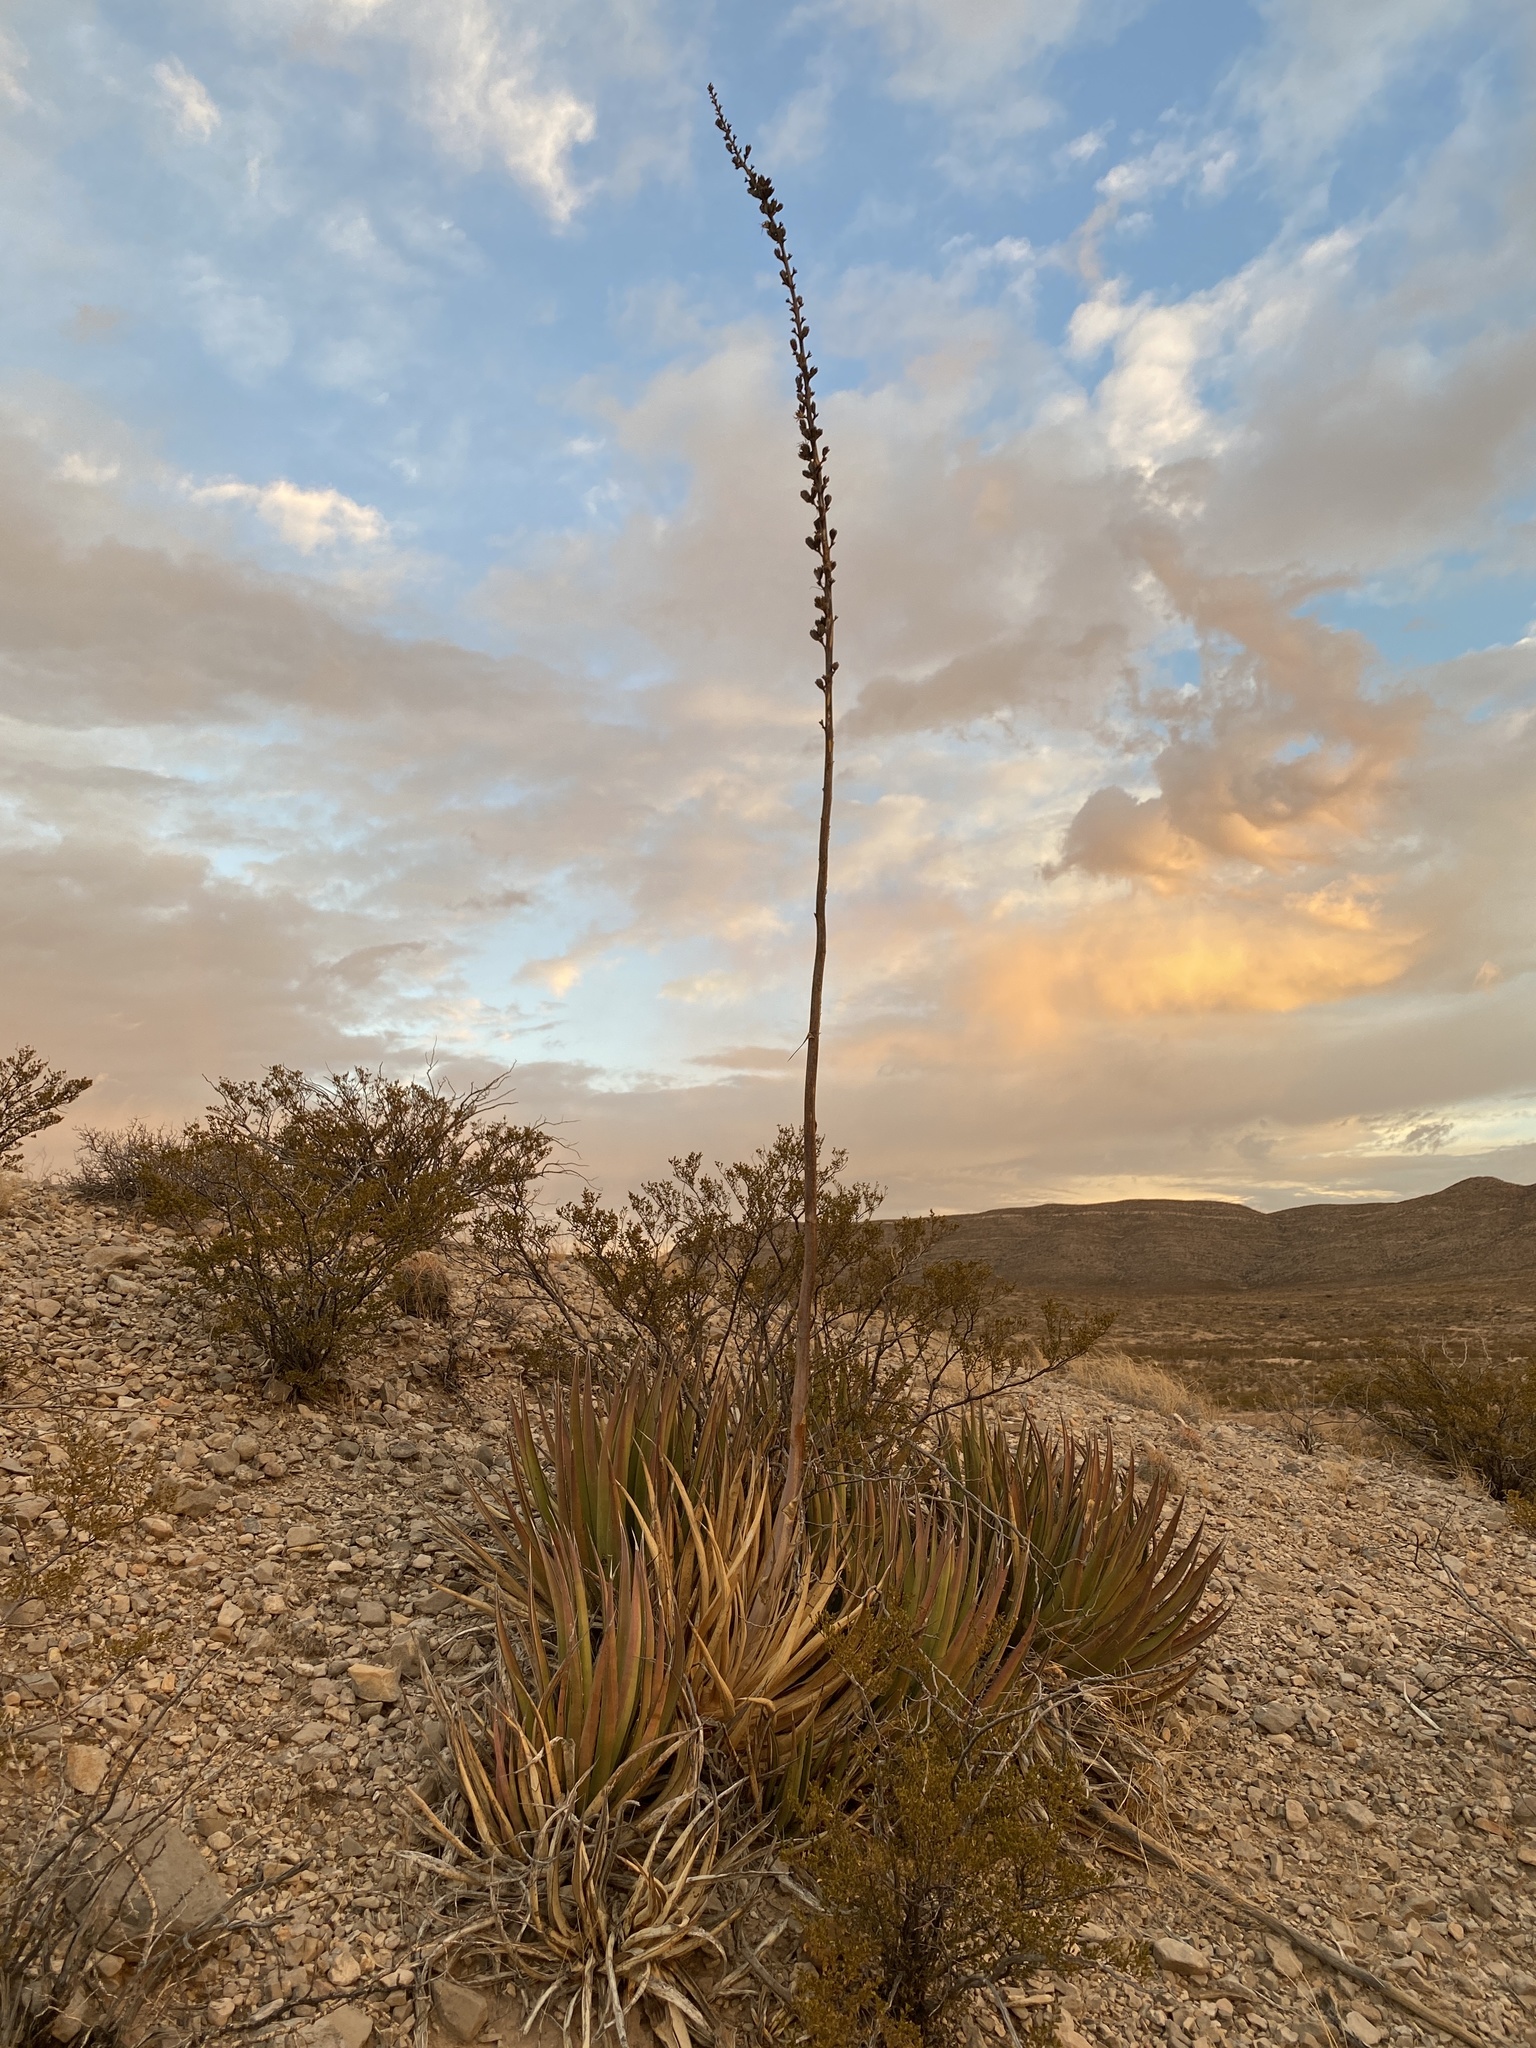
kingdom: Plantae
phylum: Tracheophyta
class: Liliopsida
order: Asparagales
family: Asparagaceae
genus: Agave
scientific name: Agave lechuguilla
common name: Lecheguilla agave
